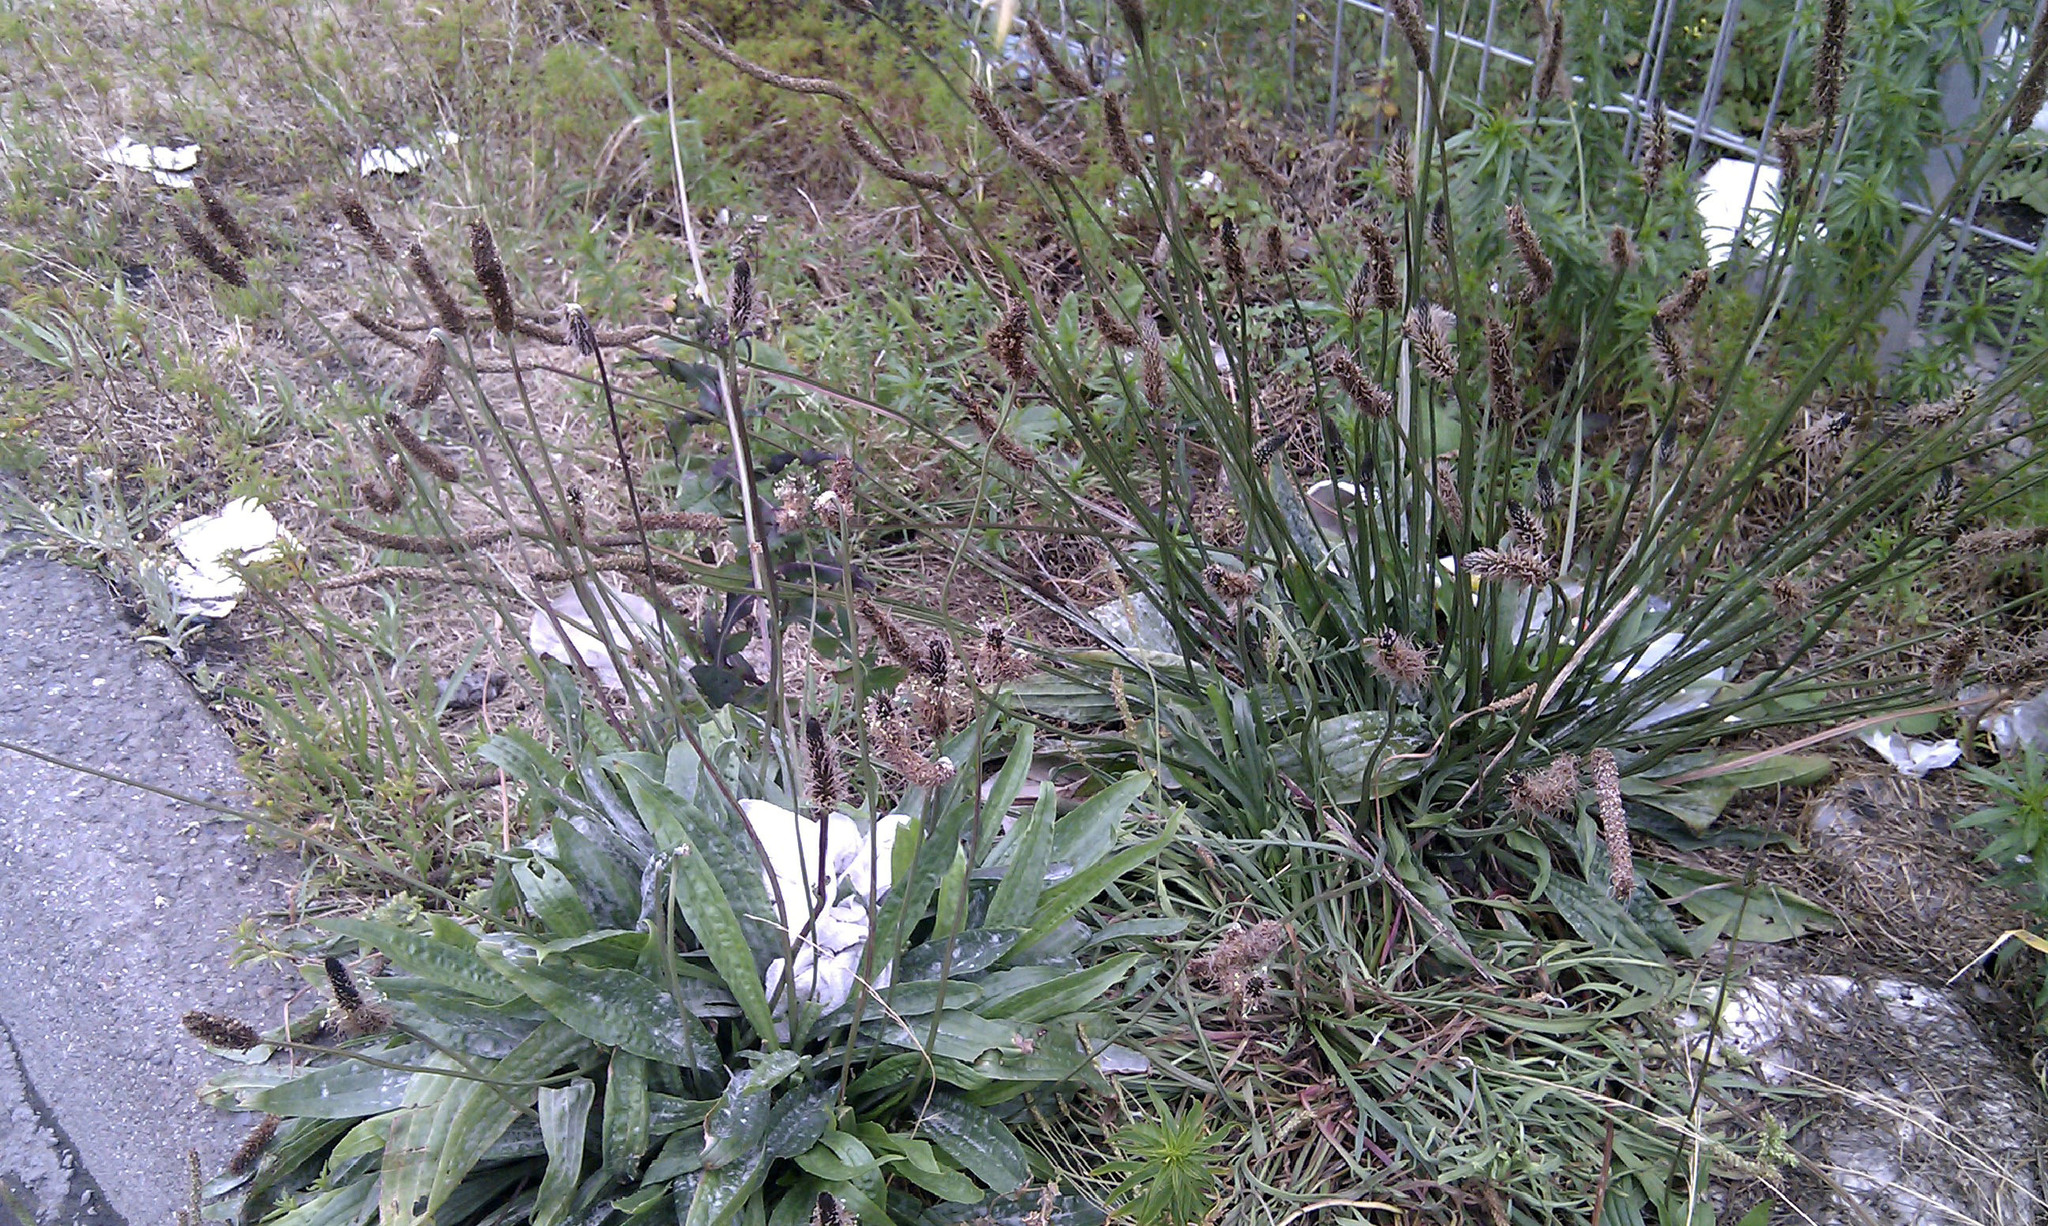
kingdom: Plantae
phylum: Tracheophyta
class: Magnoliopsida
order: Lamiales
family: Plantaginaceae
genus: Plantago
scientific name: Plantago lanceolata
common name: Ribwort plantain
